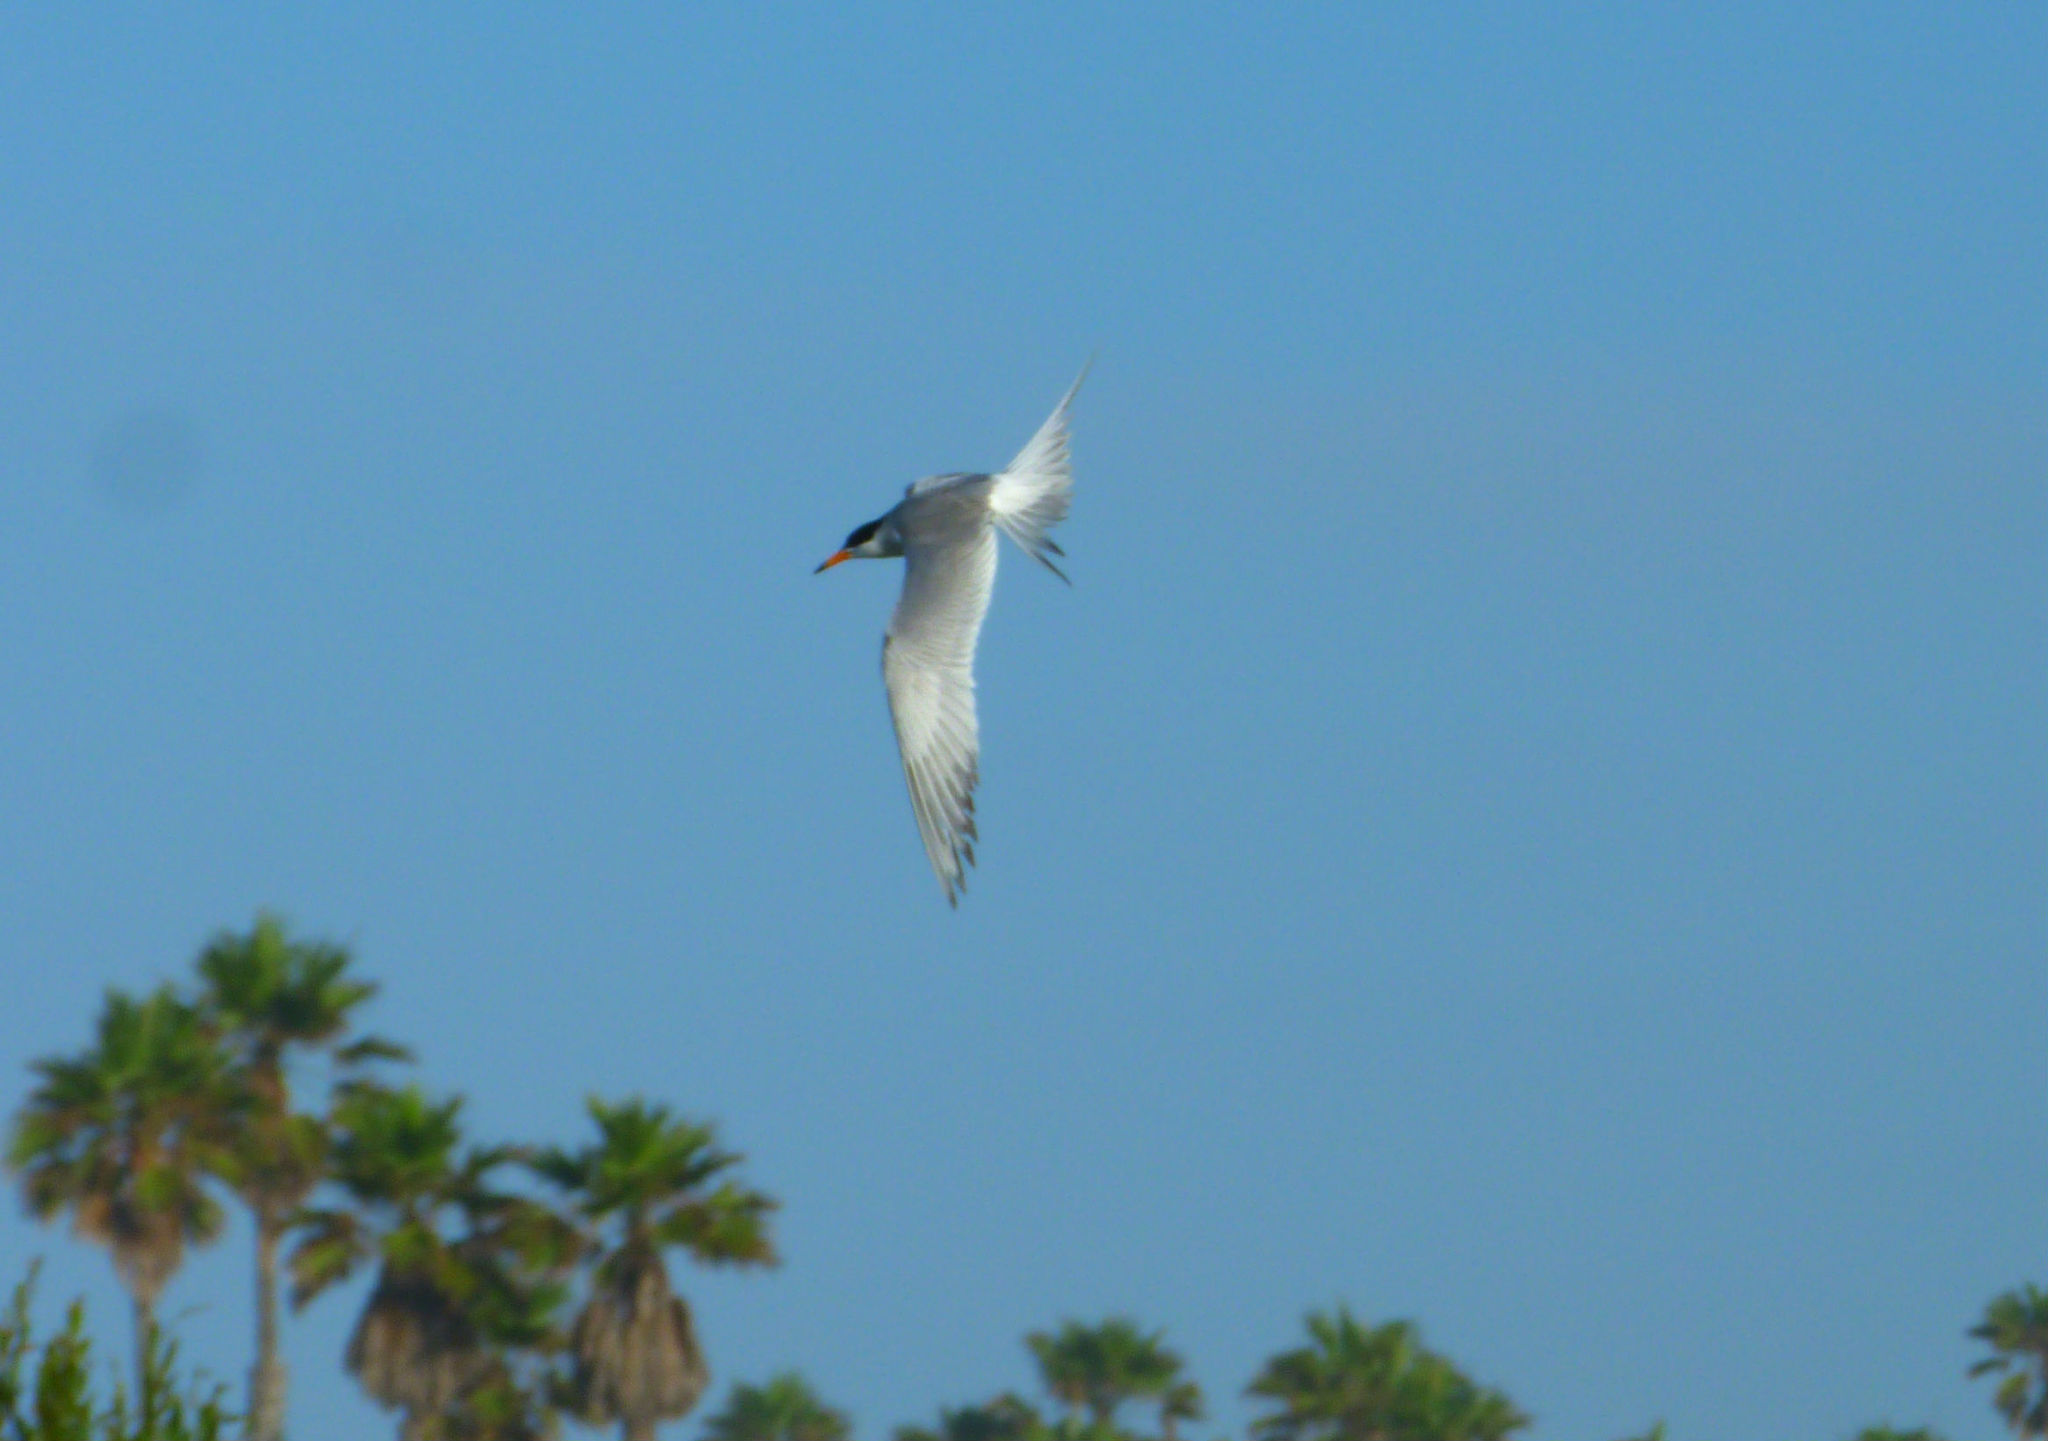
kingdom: Animalia
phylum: Chordata
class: Aves
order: Charadriiformes
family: Laridae
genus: Sterna
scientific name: Sterna forsteri
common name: Forster's tern
